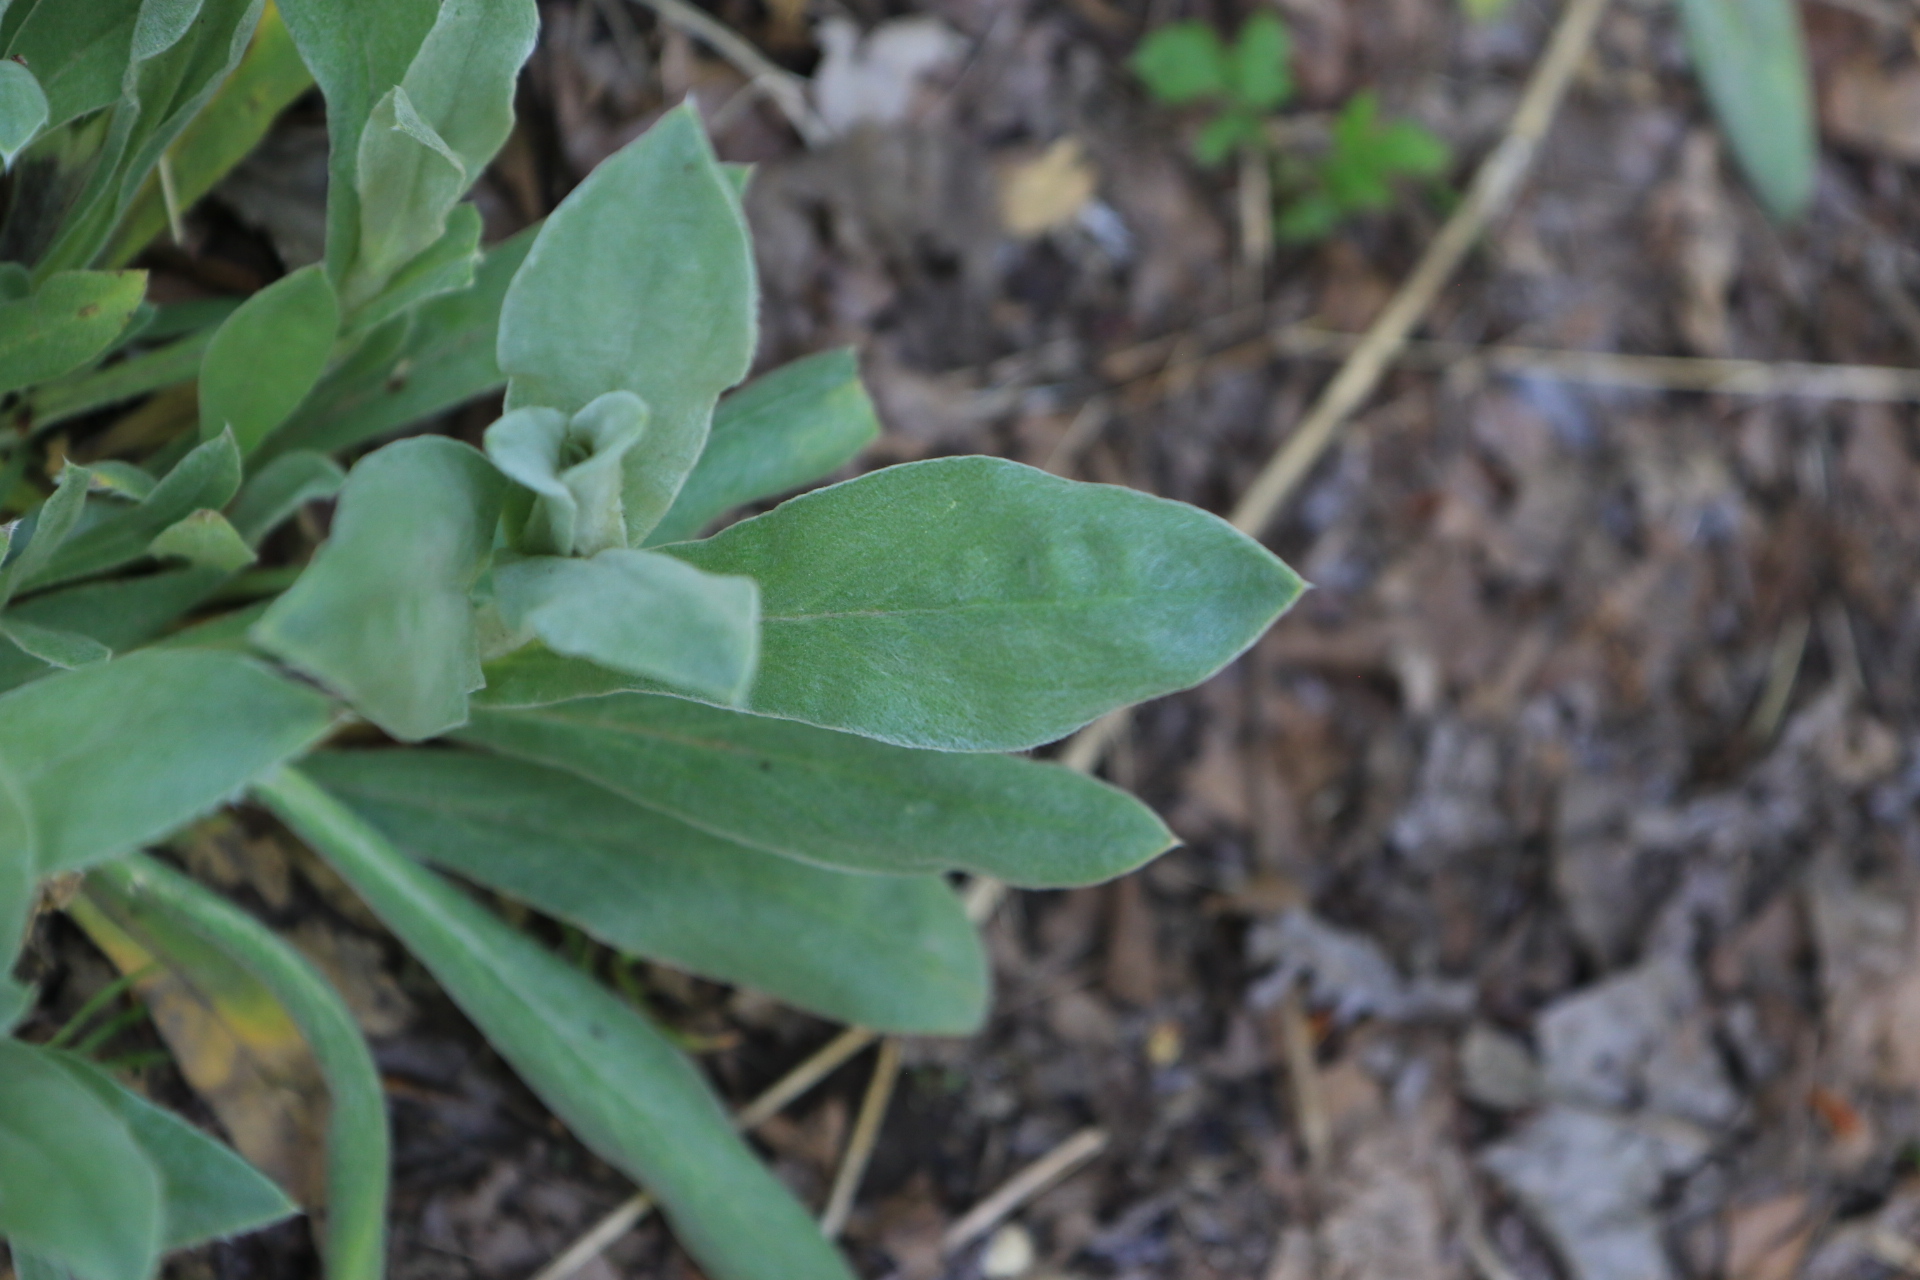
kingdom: Plantae
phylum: Tracheophyta
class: Magnoliopsida
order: Caryophyllales
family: Caryophyllaceae
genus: Silene
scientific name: Silene coronaria
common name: Rose campion
